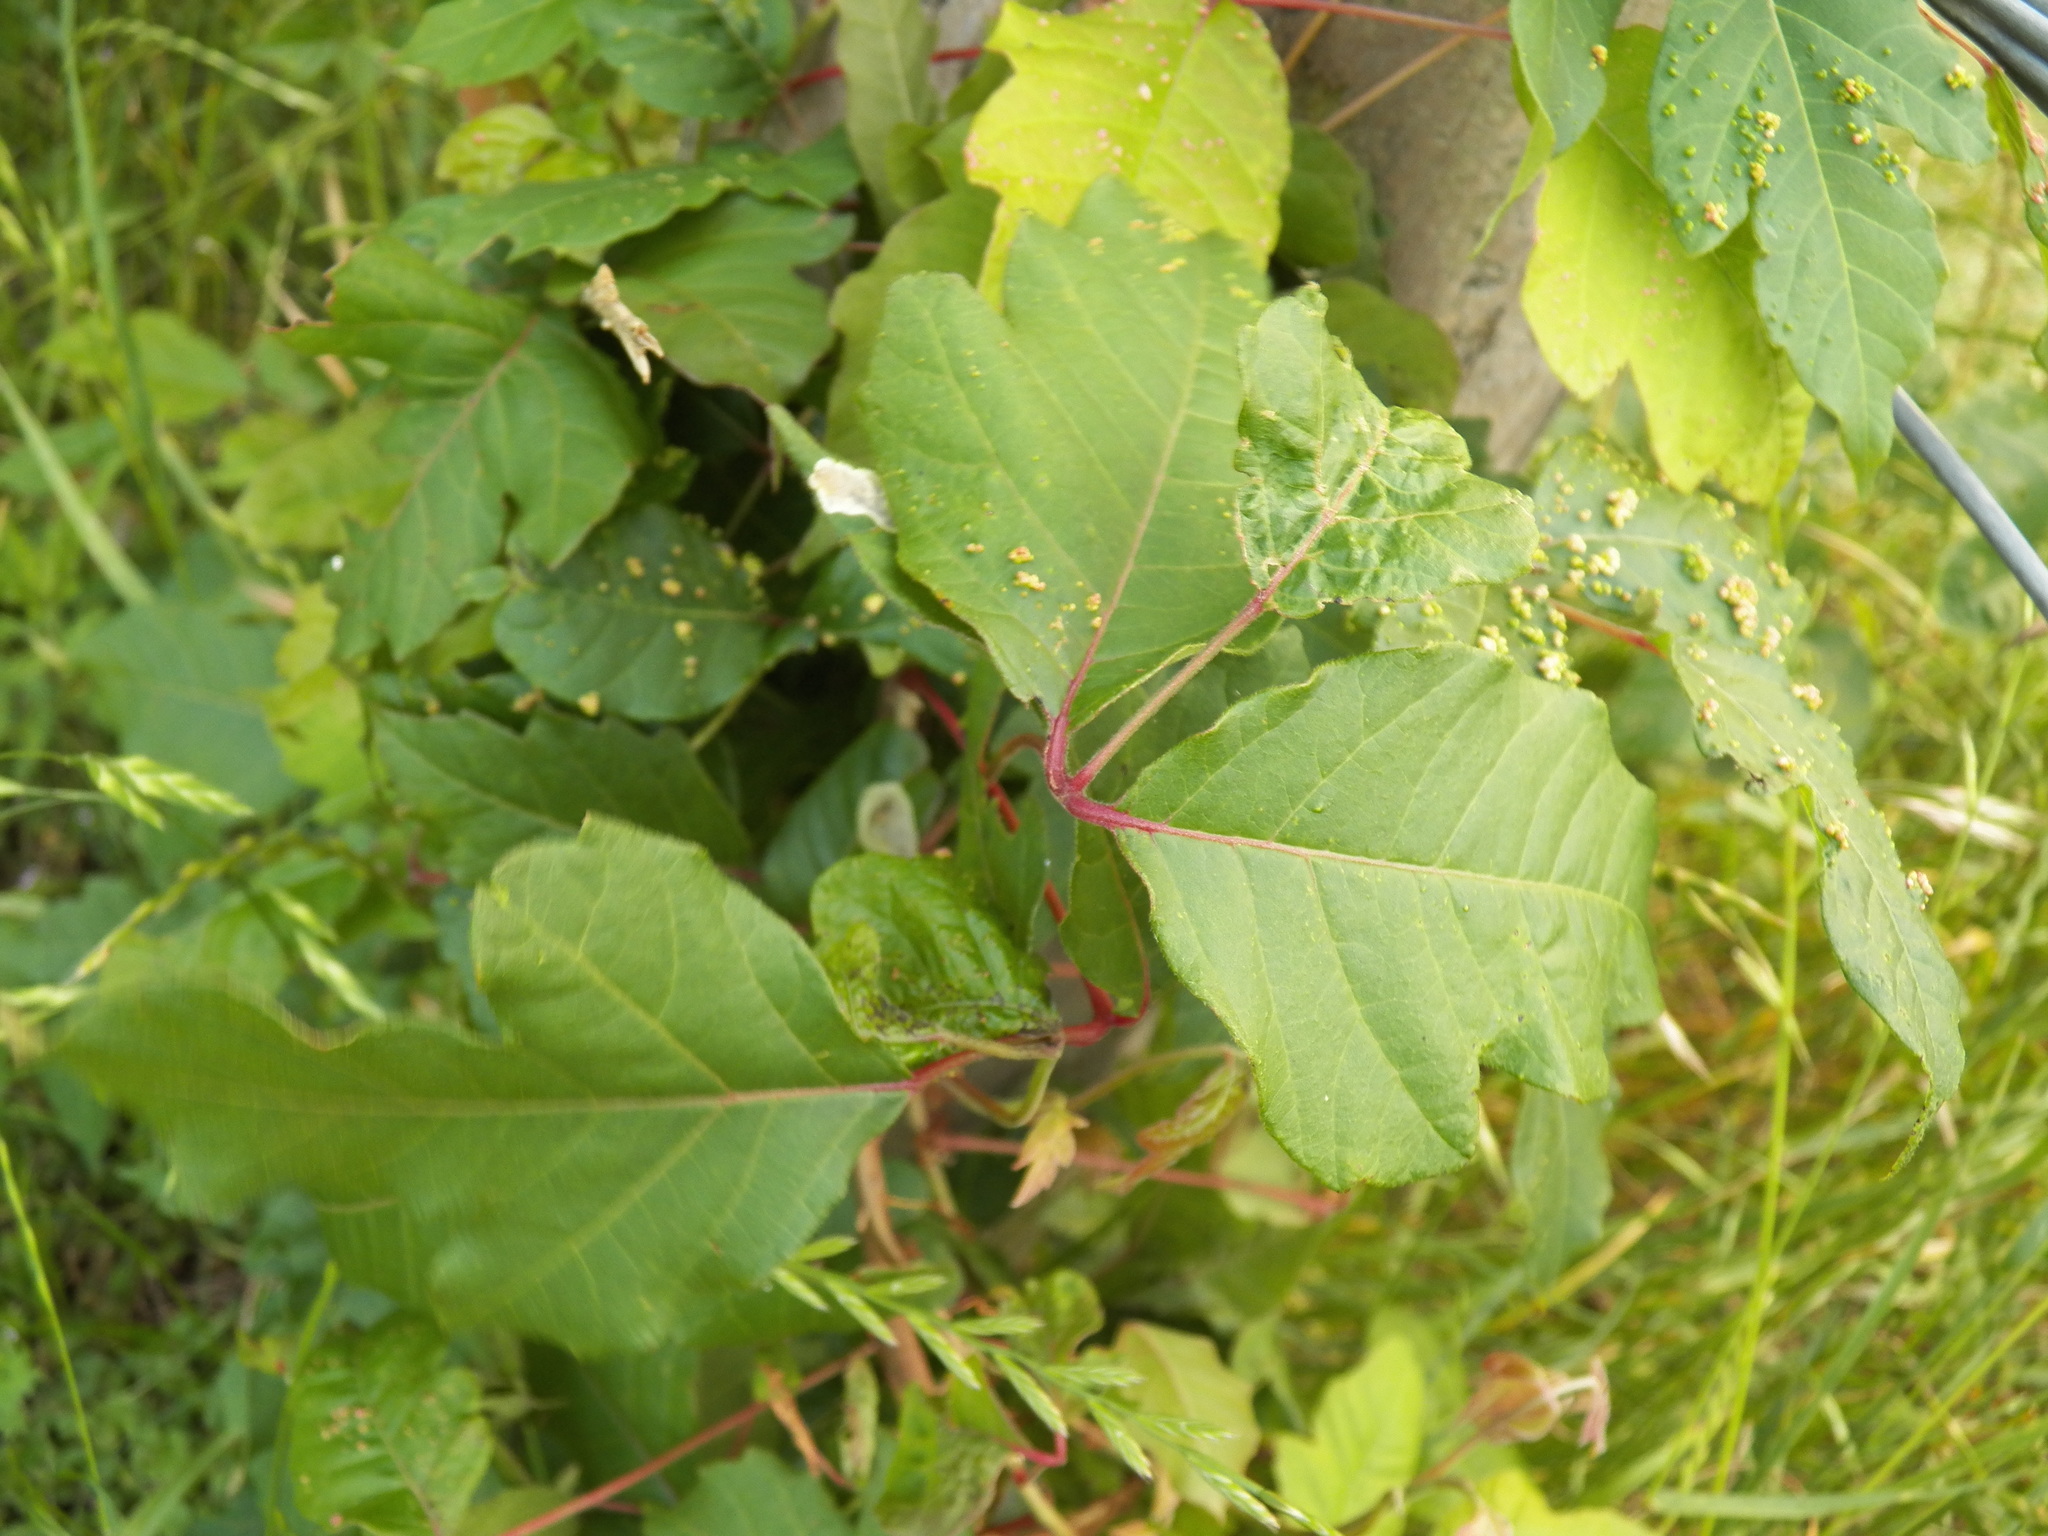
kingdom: Plantae
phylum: Tracheophyta
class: Magnoliopsida
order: Sapindales
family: Anacardiaceae
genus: Toxicodendron
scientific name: Toxicodendron radicans
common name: Poison ivy
